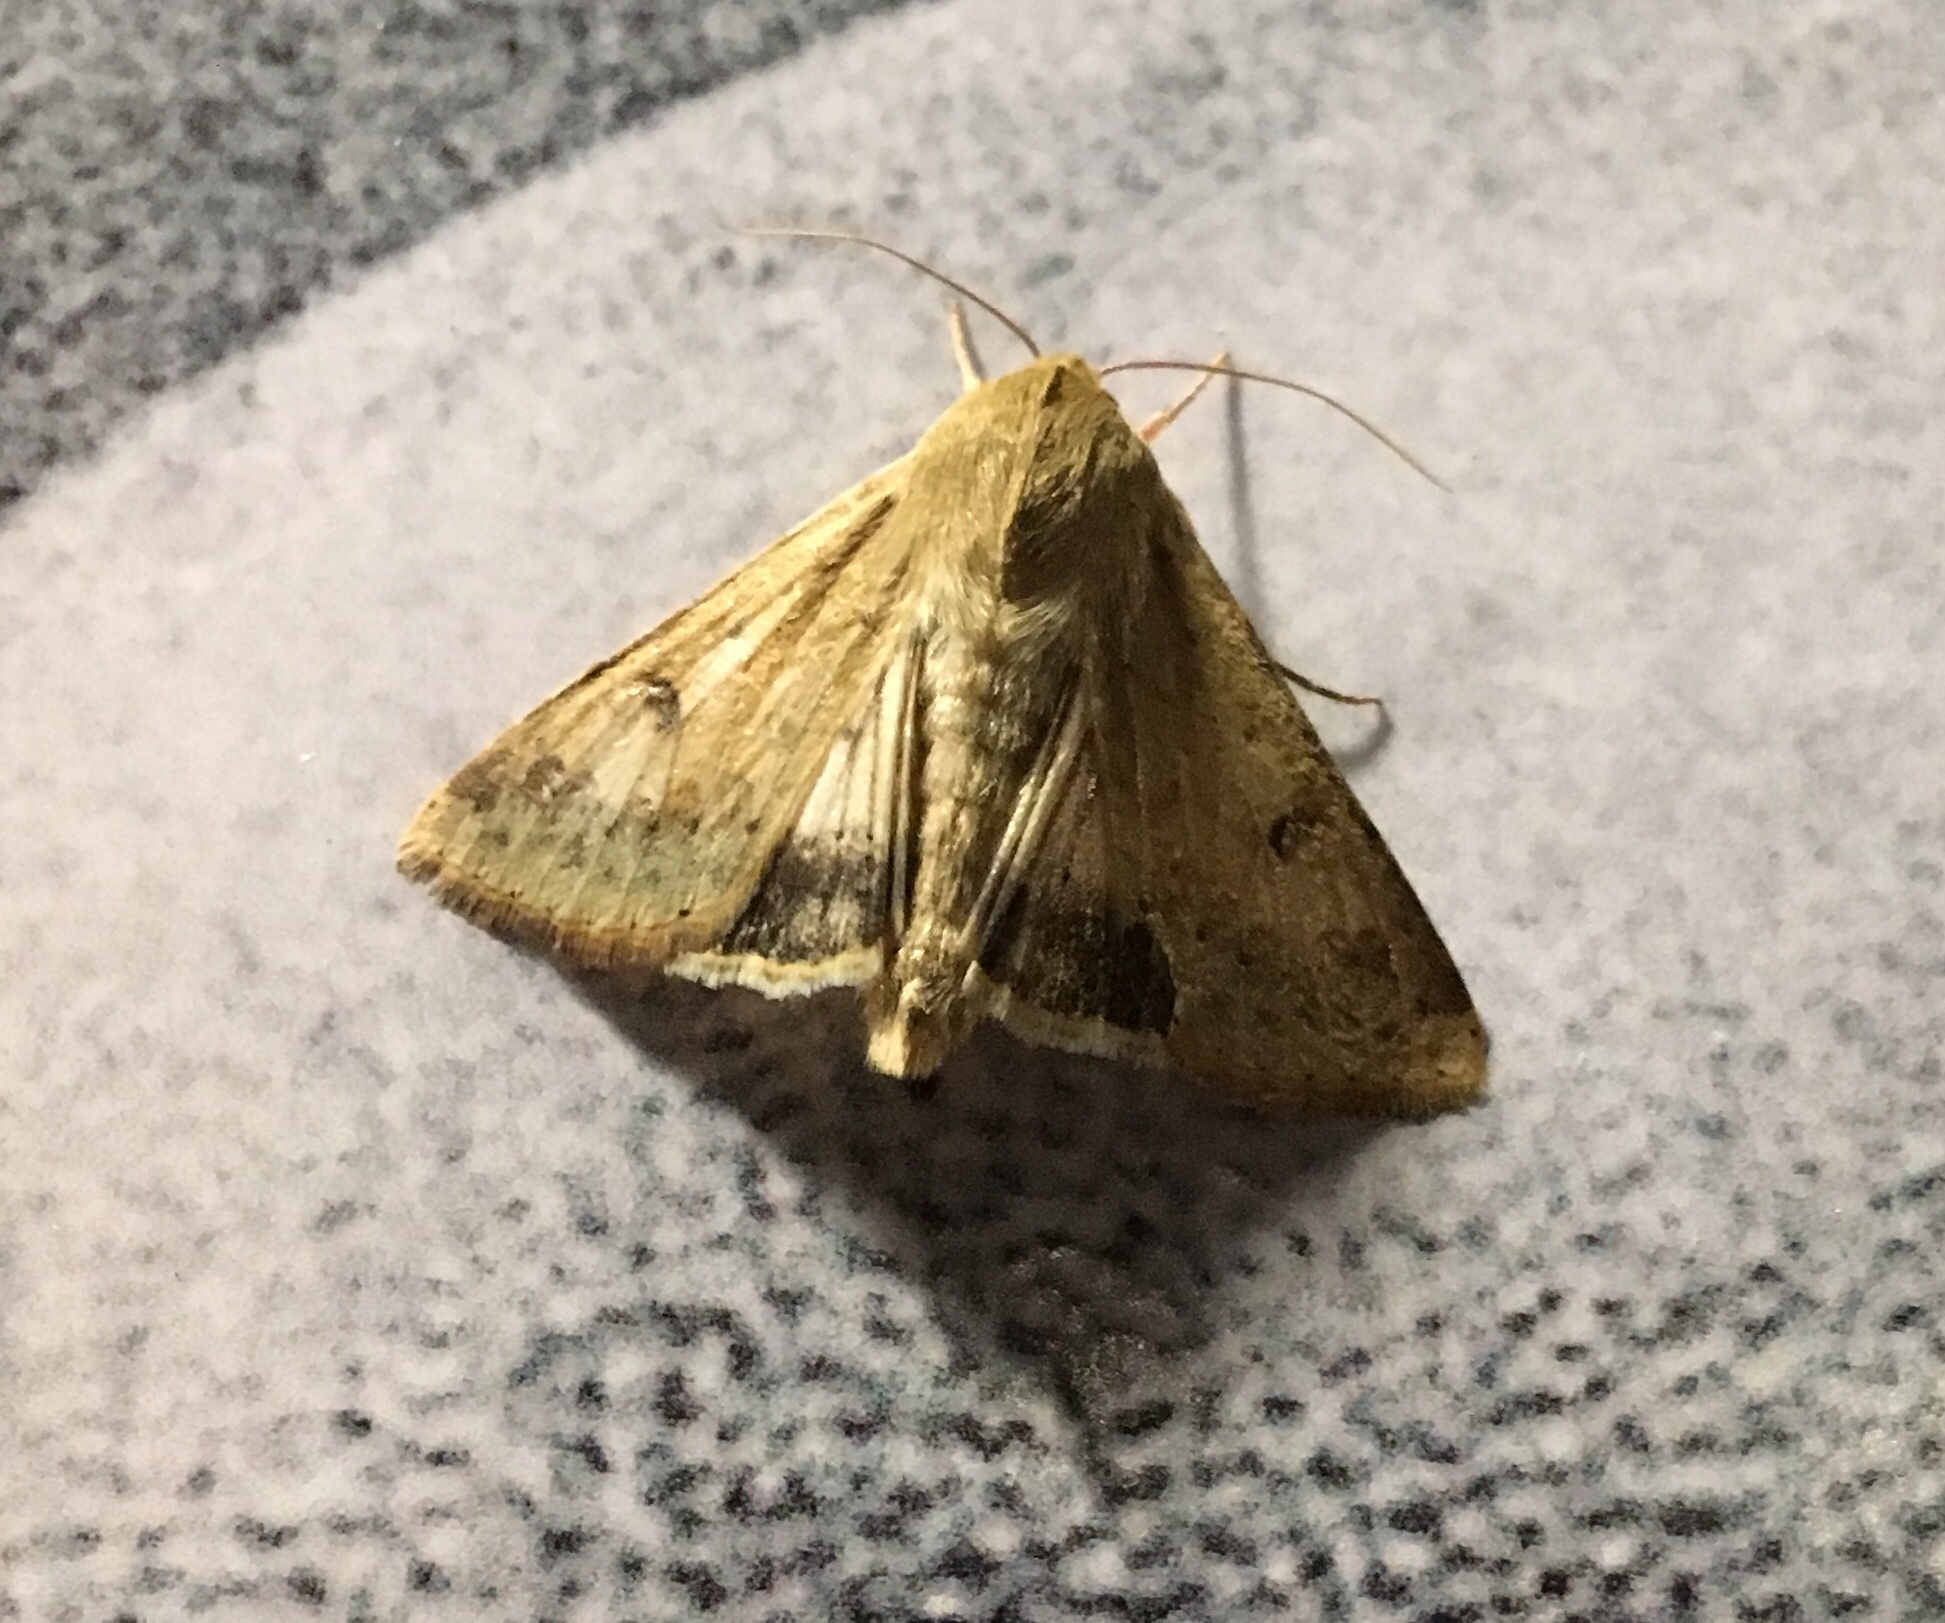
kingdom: Animalia
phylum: Arthropoda
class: Insecta
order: Lepidoptera
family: Noctuidae
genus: Helicoverpa
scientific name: Helicoverpa zea
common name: Bollworm
